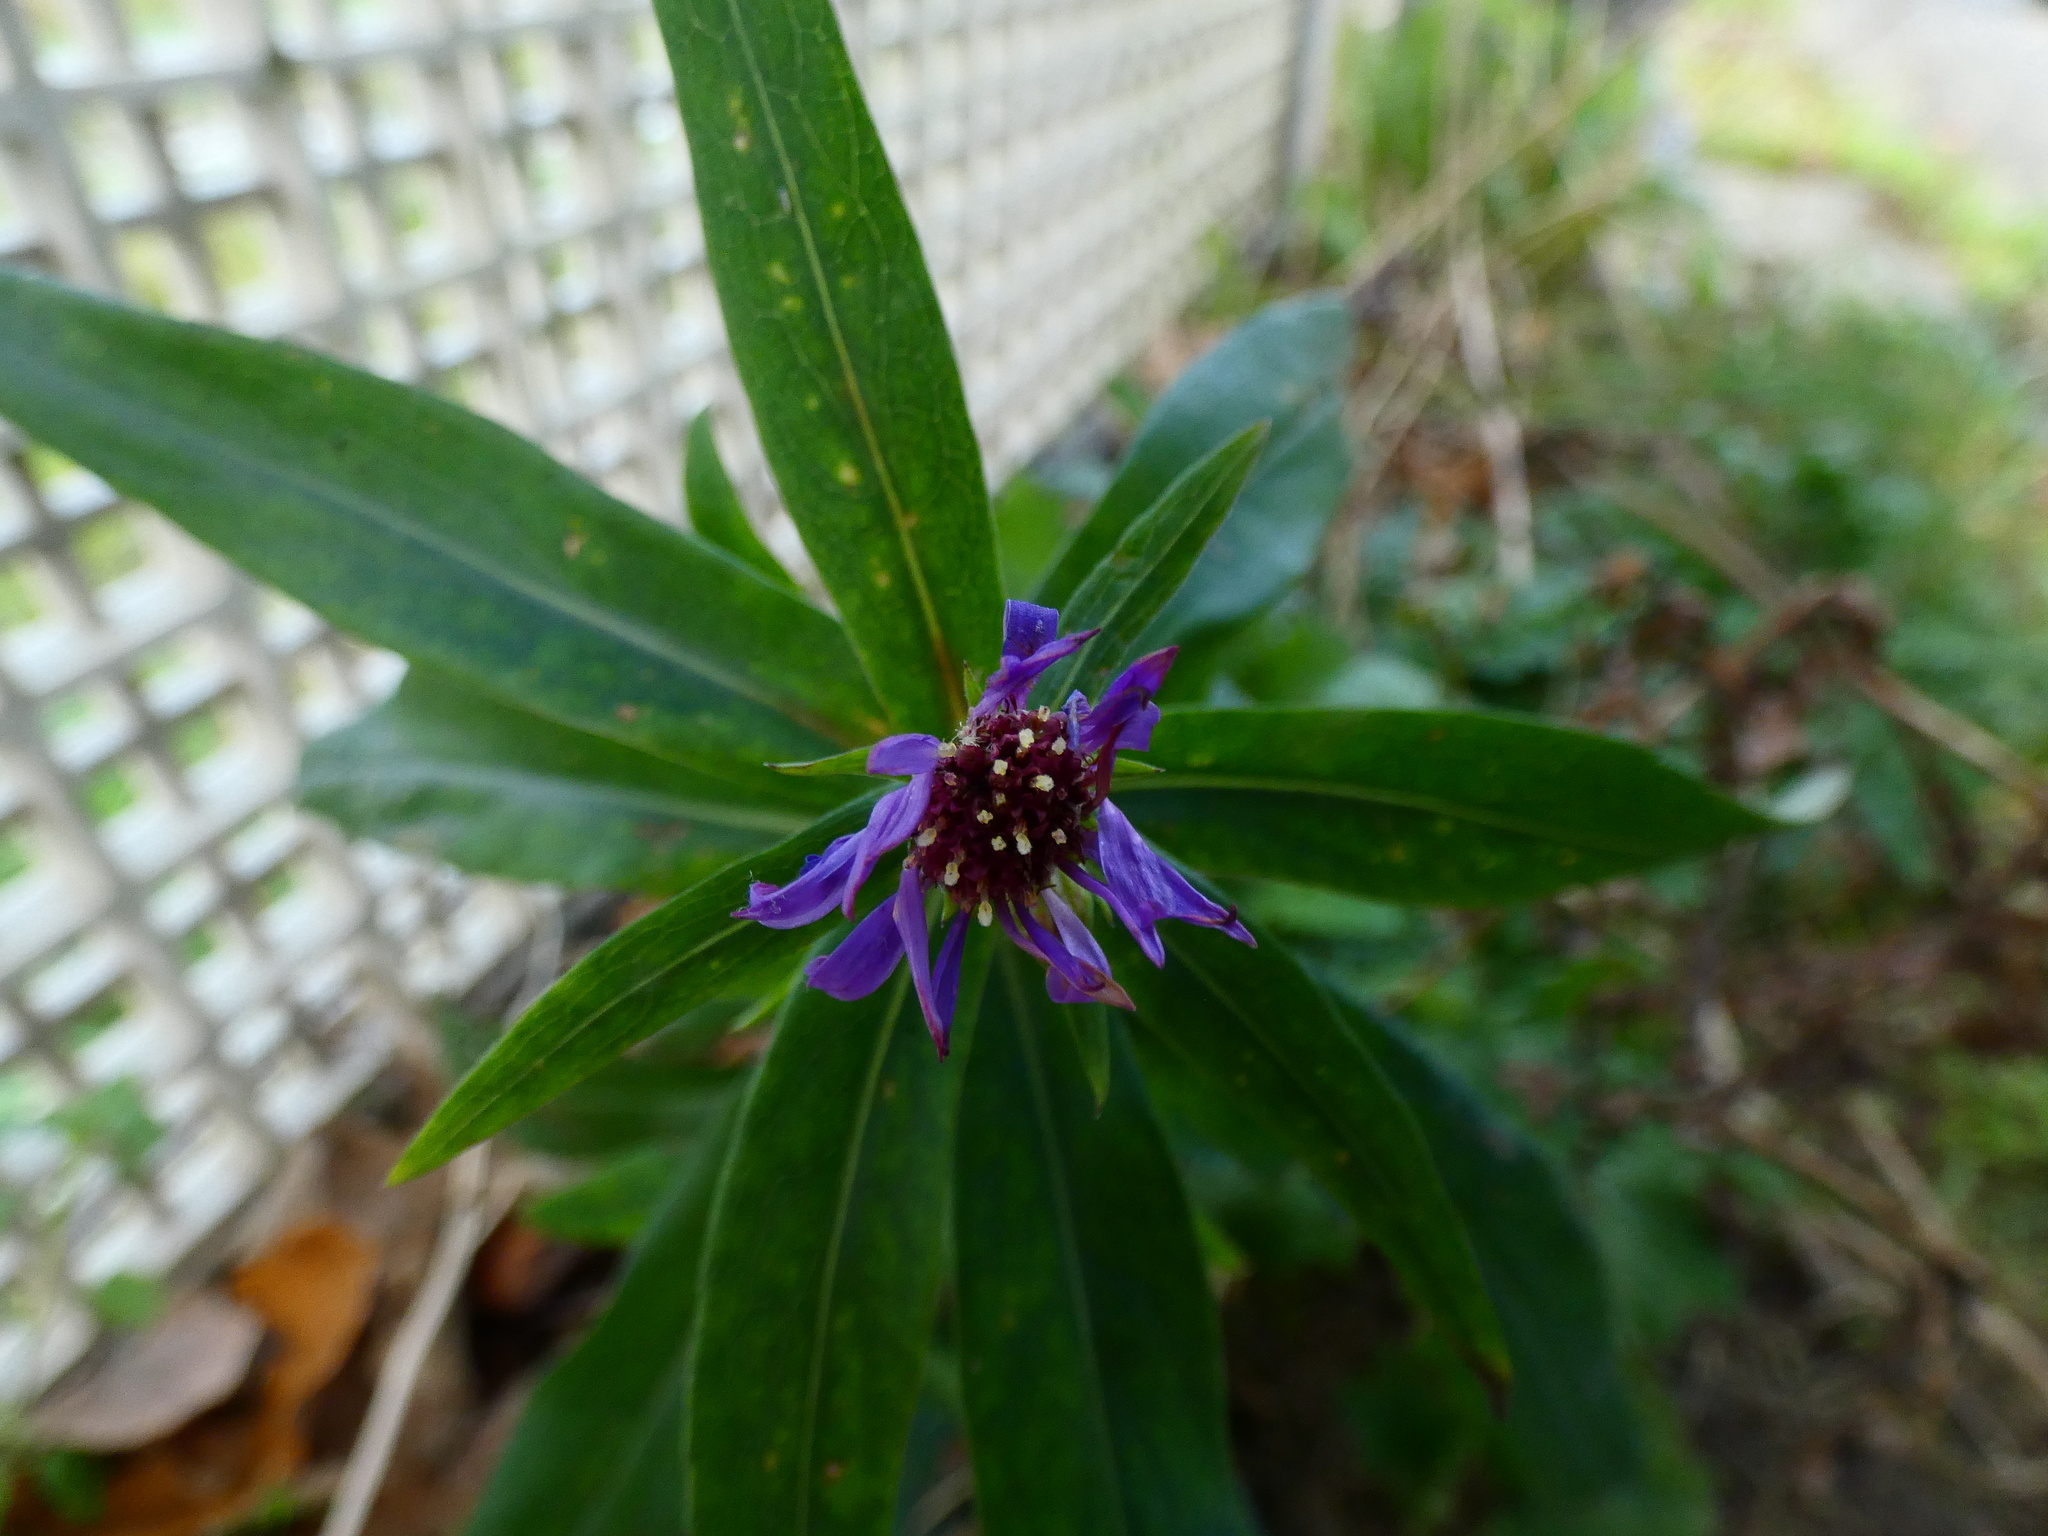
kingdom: Plantae
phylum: Tracheophyta
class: Magnoliopsida
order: Asterales
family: Asteraceae
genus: Symphyotrichum
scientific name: Symphyotrichum novi-belgii
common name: Michaelmas daisy
